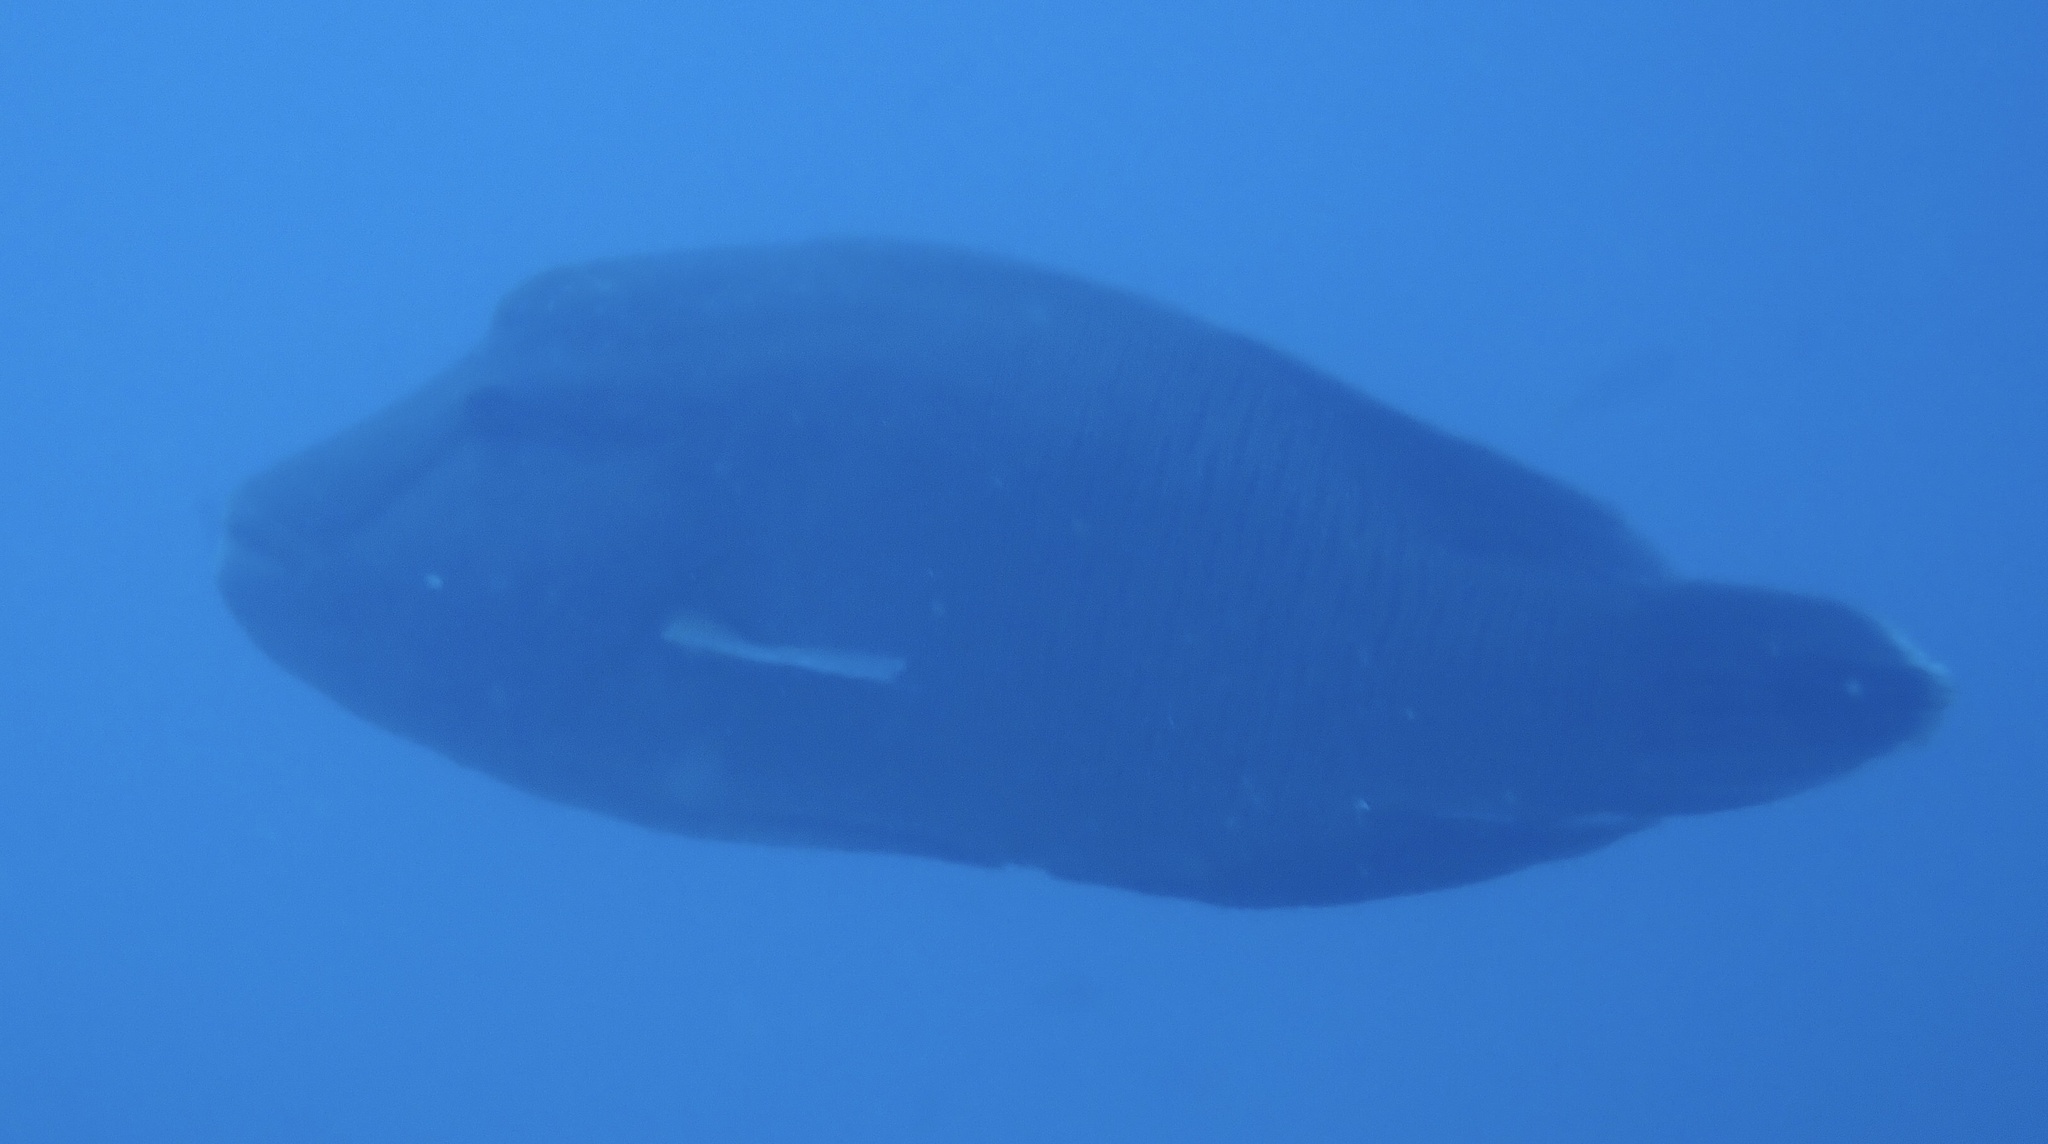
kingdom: Animalia
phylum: Chordata
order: Perciformes
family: Labridae
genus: Cheilinus
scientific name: Cheilinus undulatus
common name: Humphead wrasse
